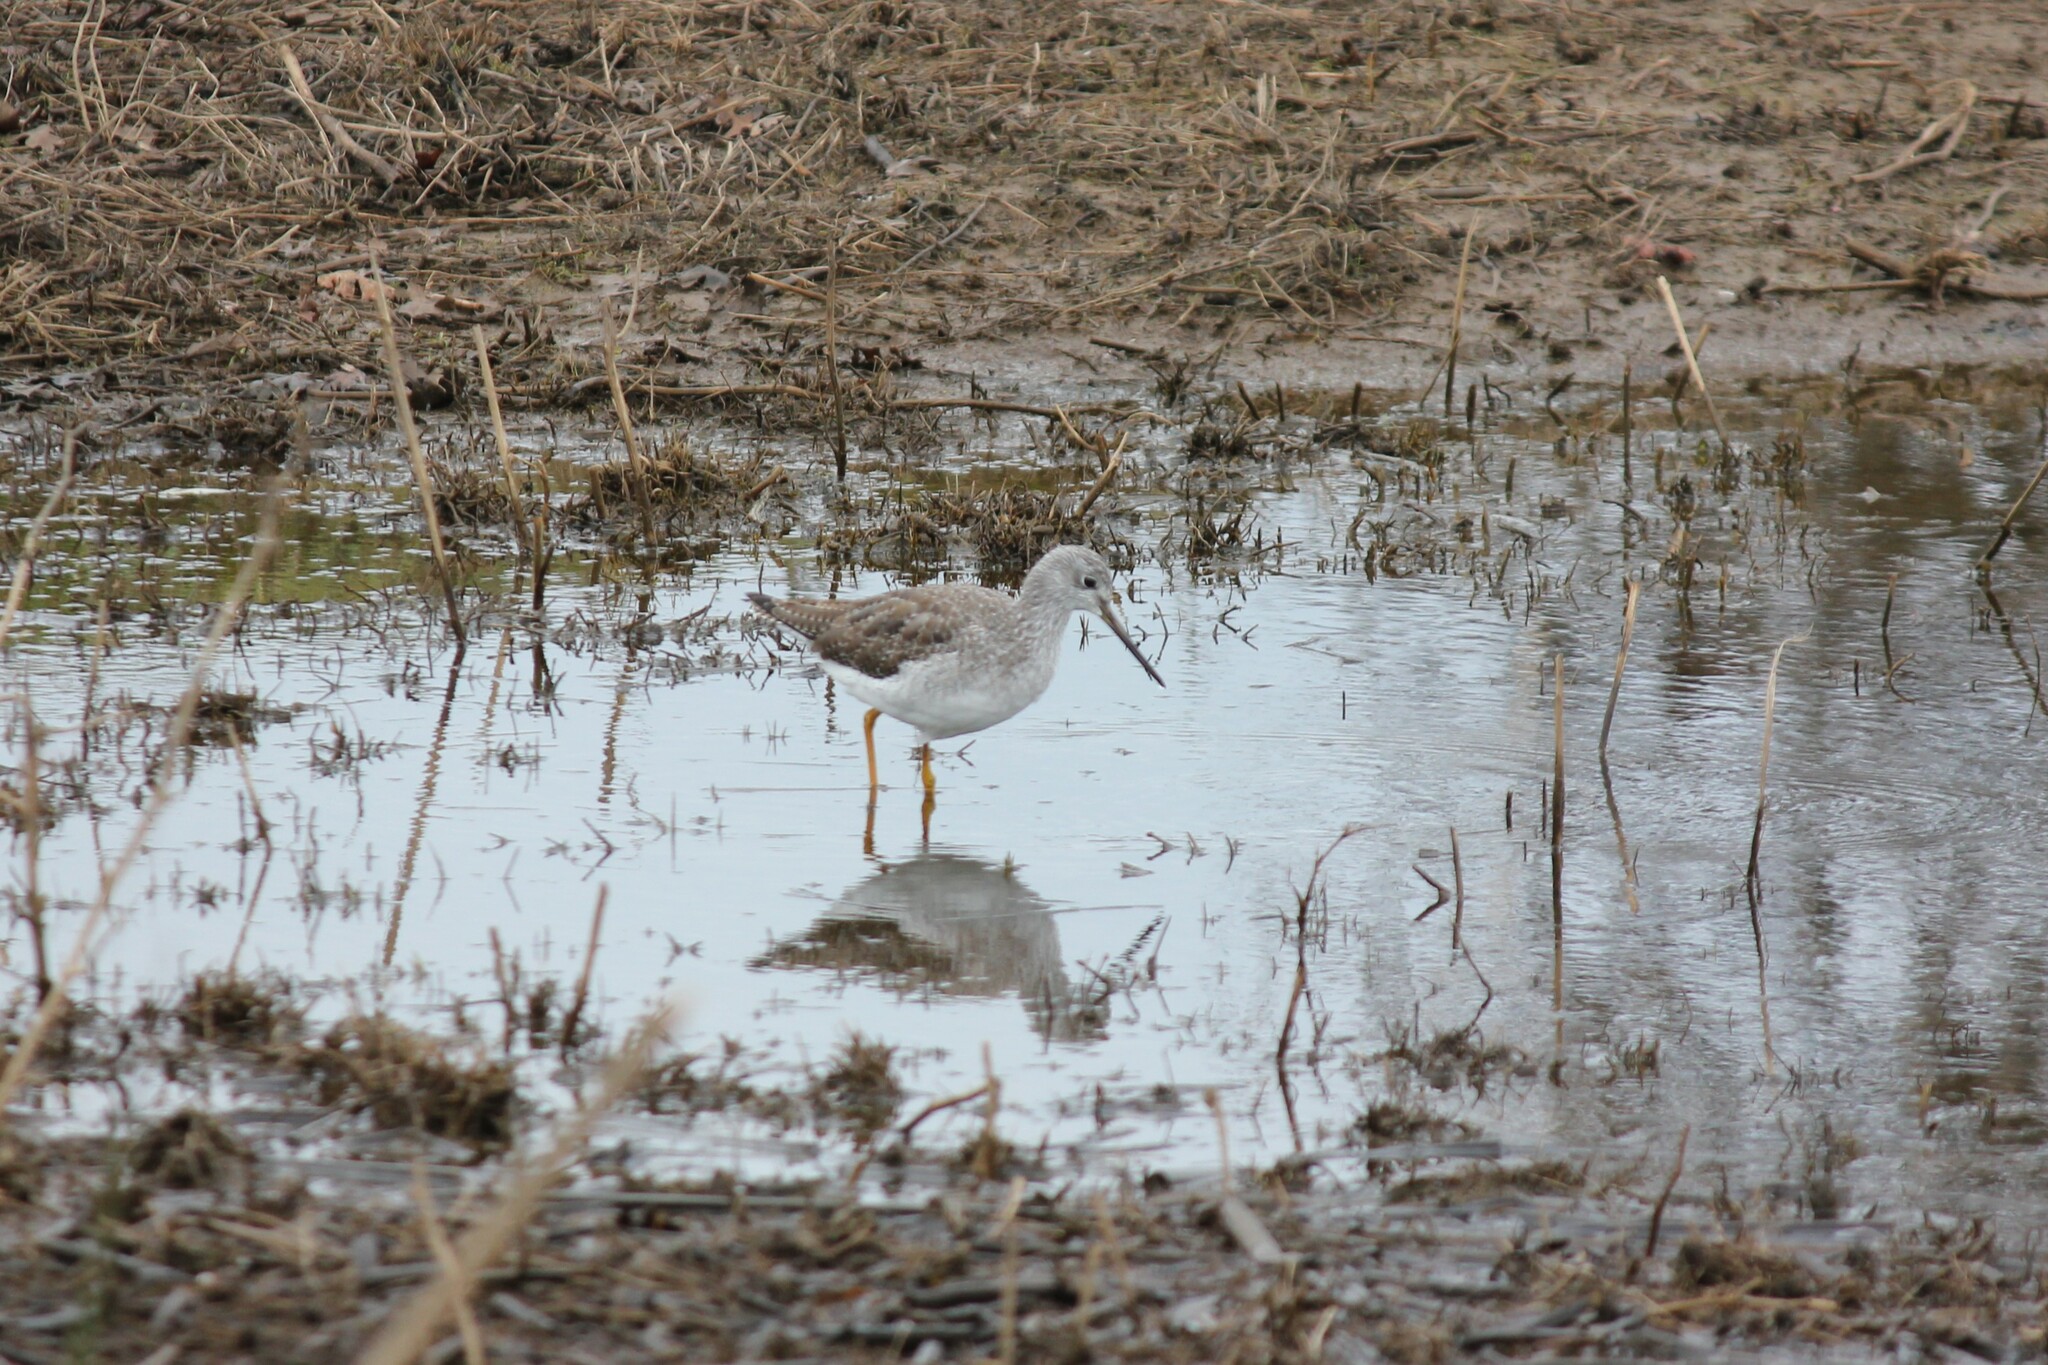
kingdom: Animalia
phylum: Chordata
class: Aves
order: Charadriiformes
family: Scolopacidae
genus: Tringa
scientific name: Tringa melanoleuca
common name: Greater yellowlegs
